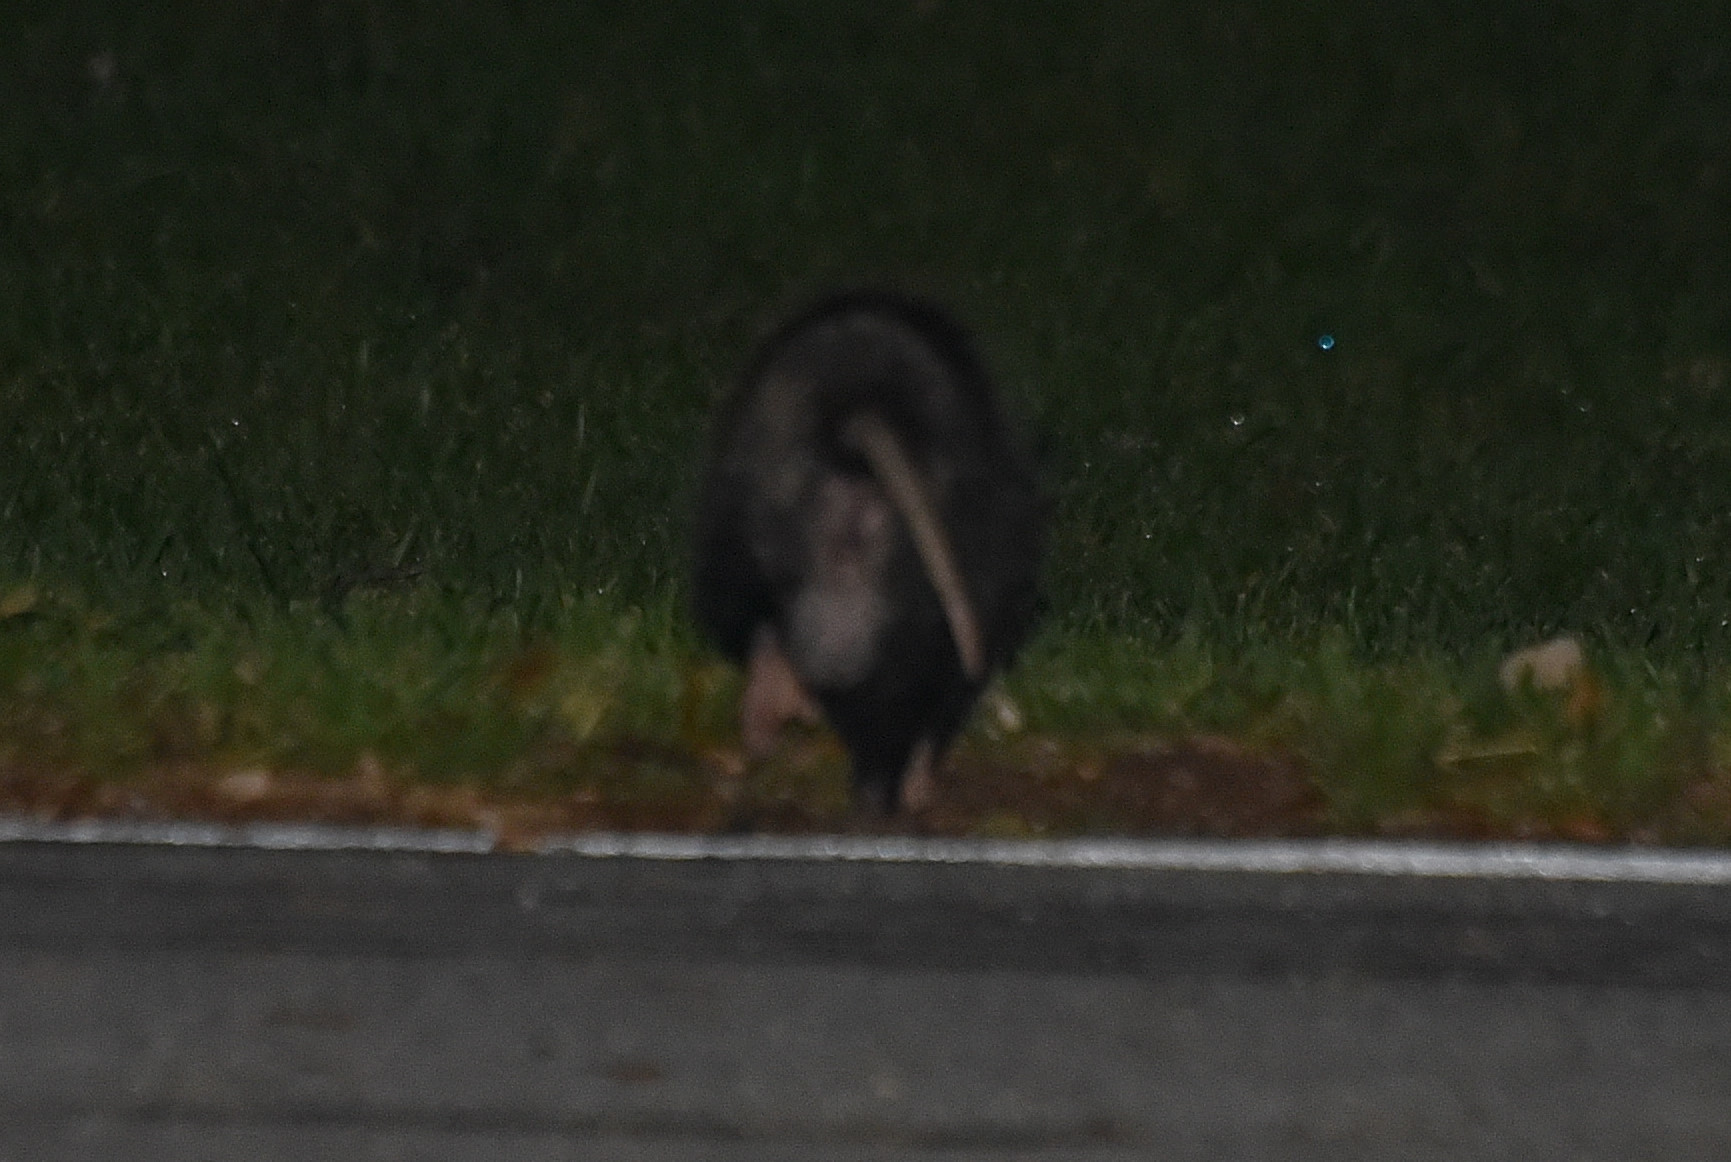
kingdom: Animalia
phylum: Chordata
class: Mammalia
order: Didelphimorphia
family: Didelphidae
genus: Didelphis
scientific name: Didelphis virginiana
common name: Virginia opossum
